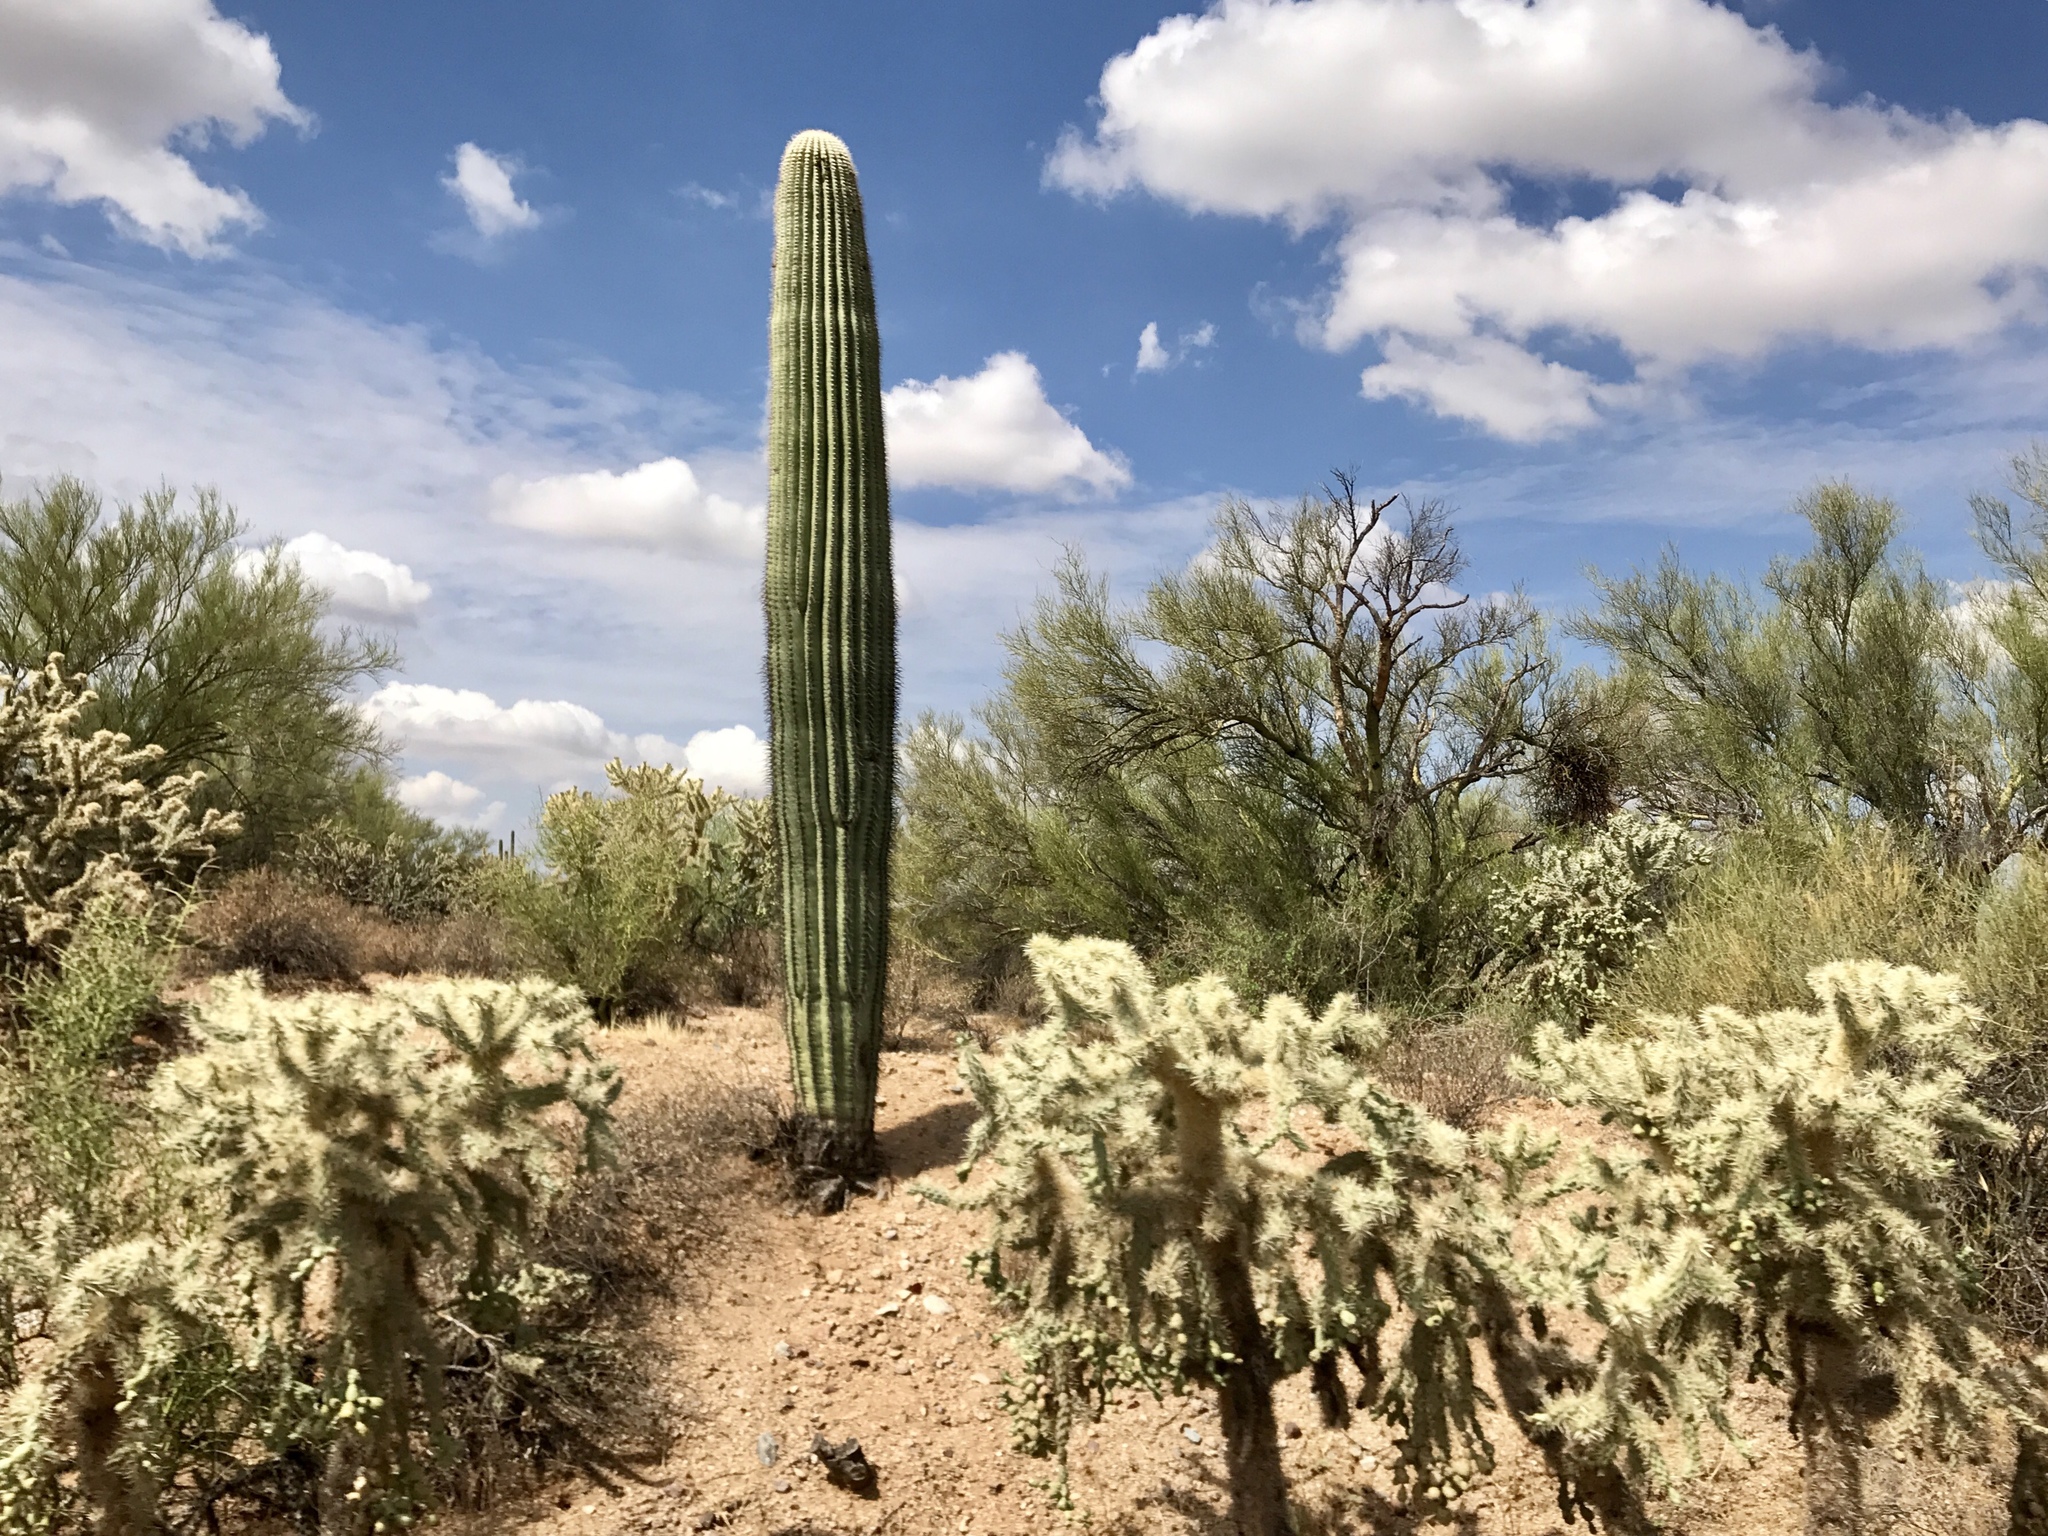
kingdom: Plantae
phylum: Tracheophyta
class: Magnoliopsida
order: Caryophyllales
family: Cactaceae
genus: Carnegiea
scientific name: Carnegiea gigantea
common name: Saguaro
